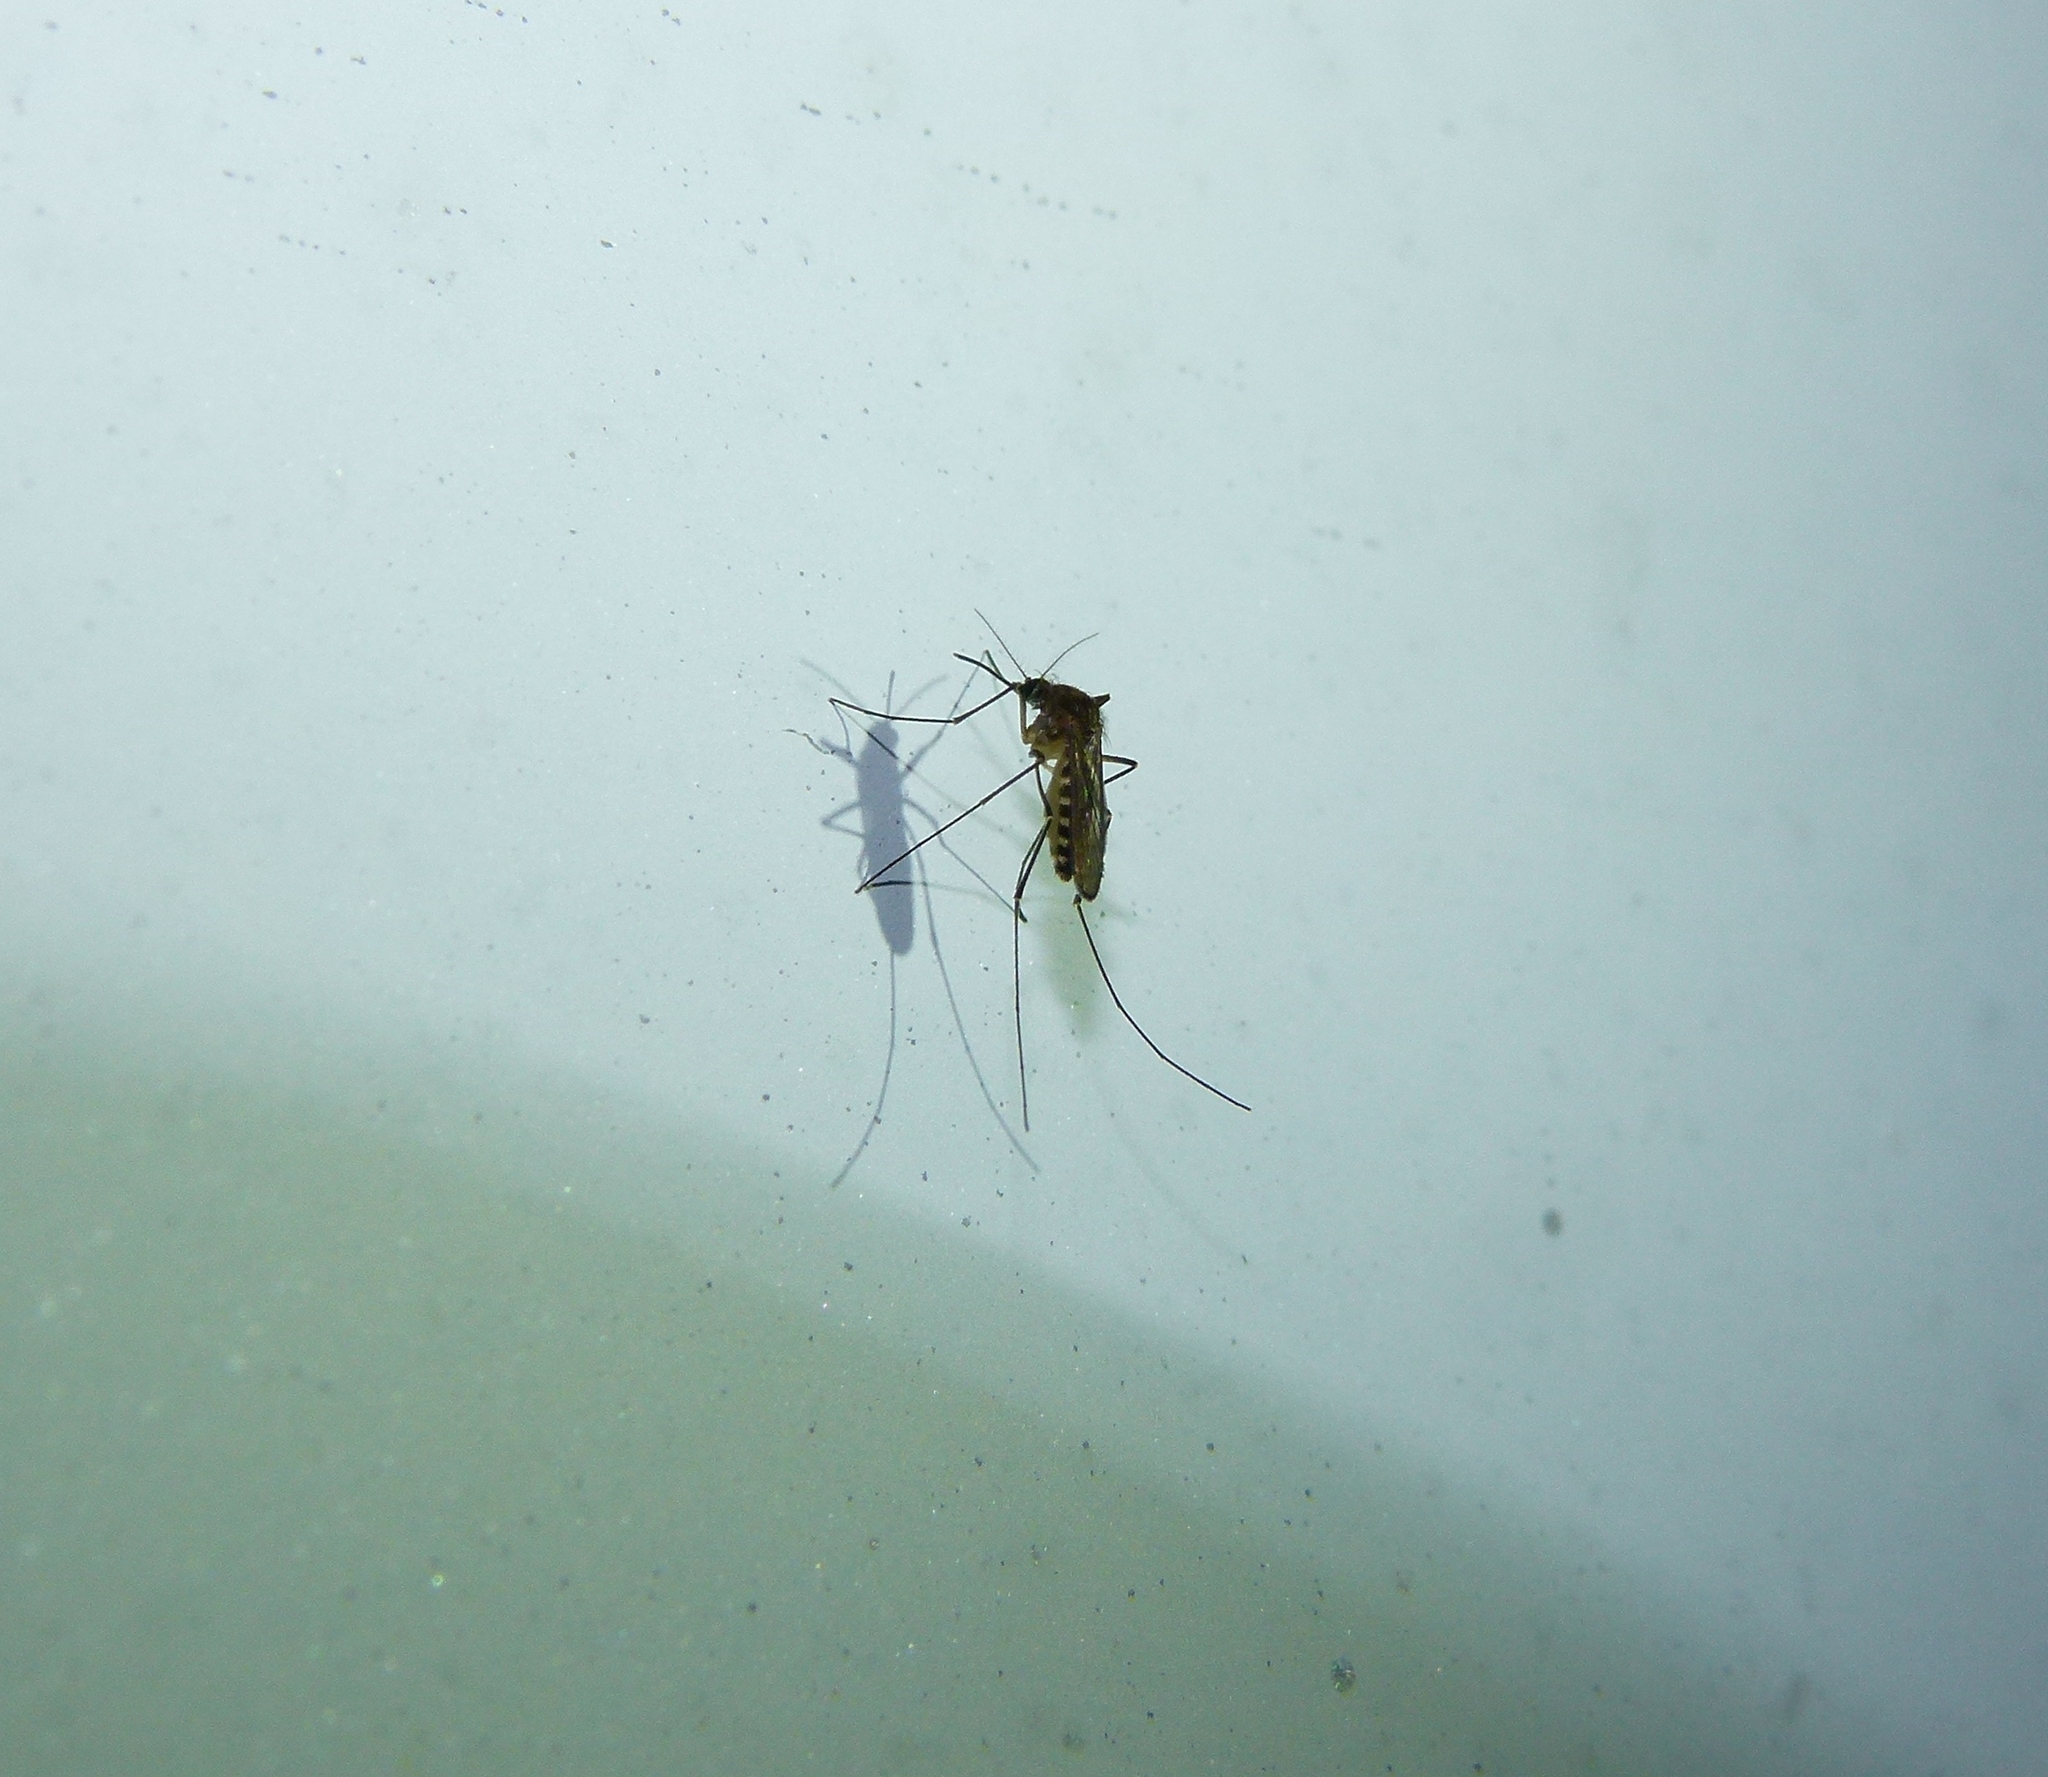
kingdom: Animalia
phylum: Arthropoda
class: Insecta
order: Diptera
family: Culicidae
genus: Culex
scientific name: Culex erraticus
